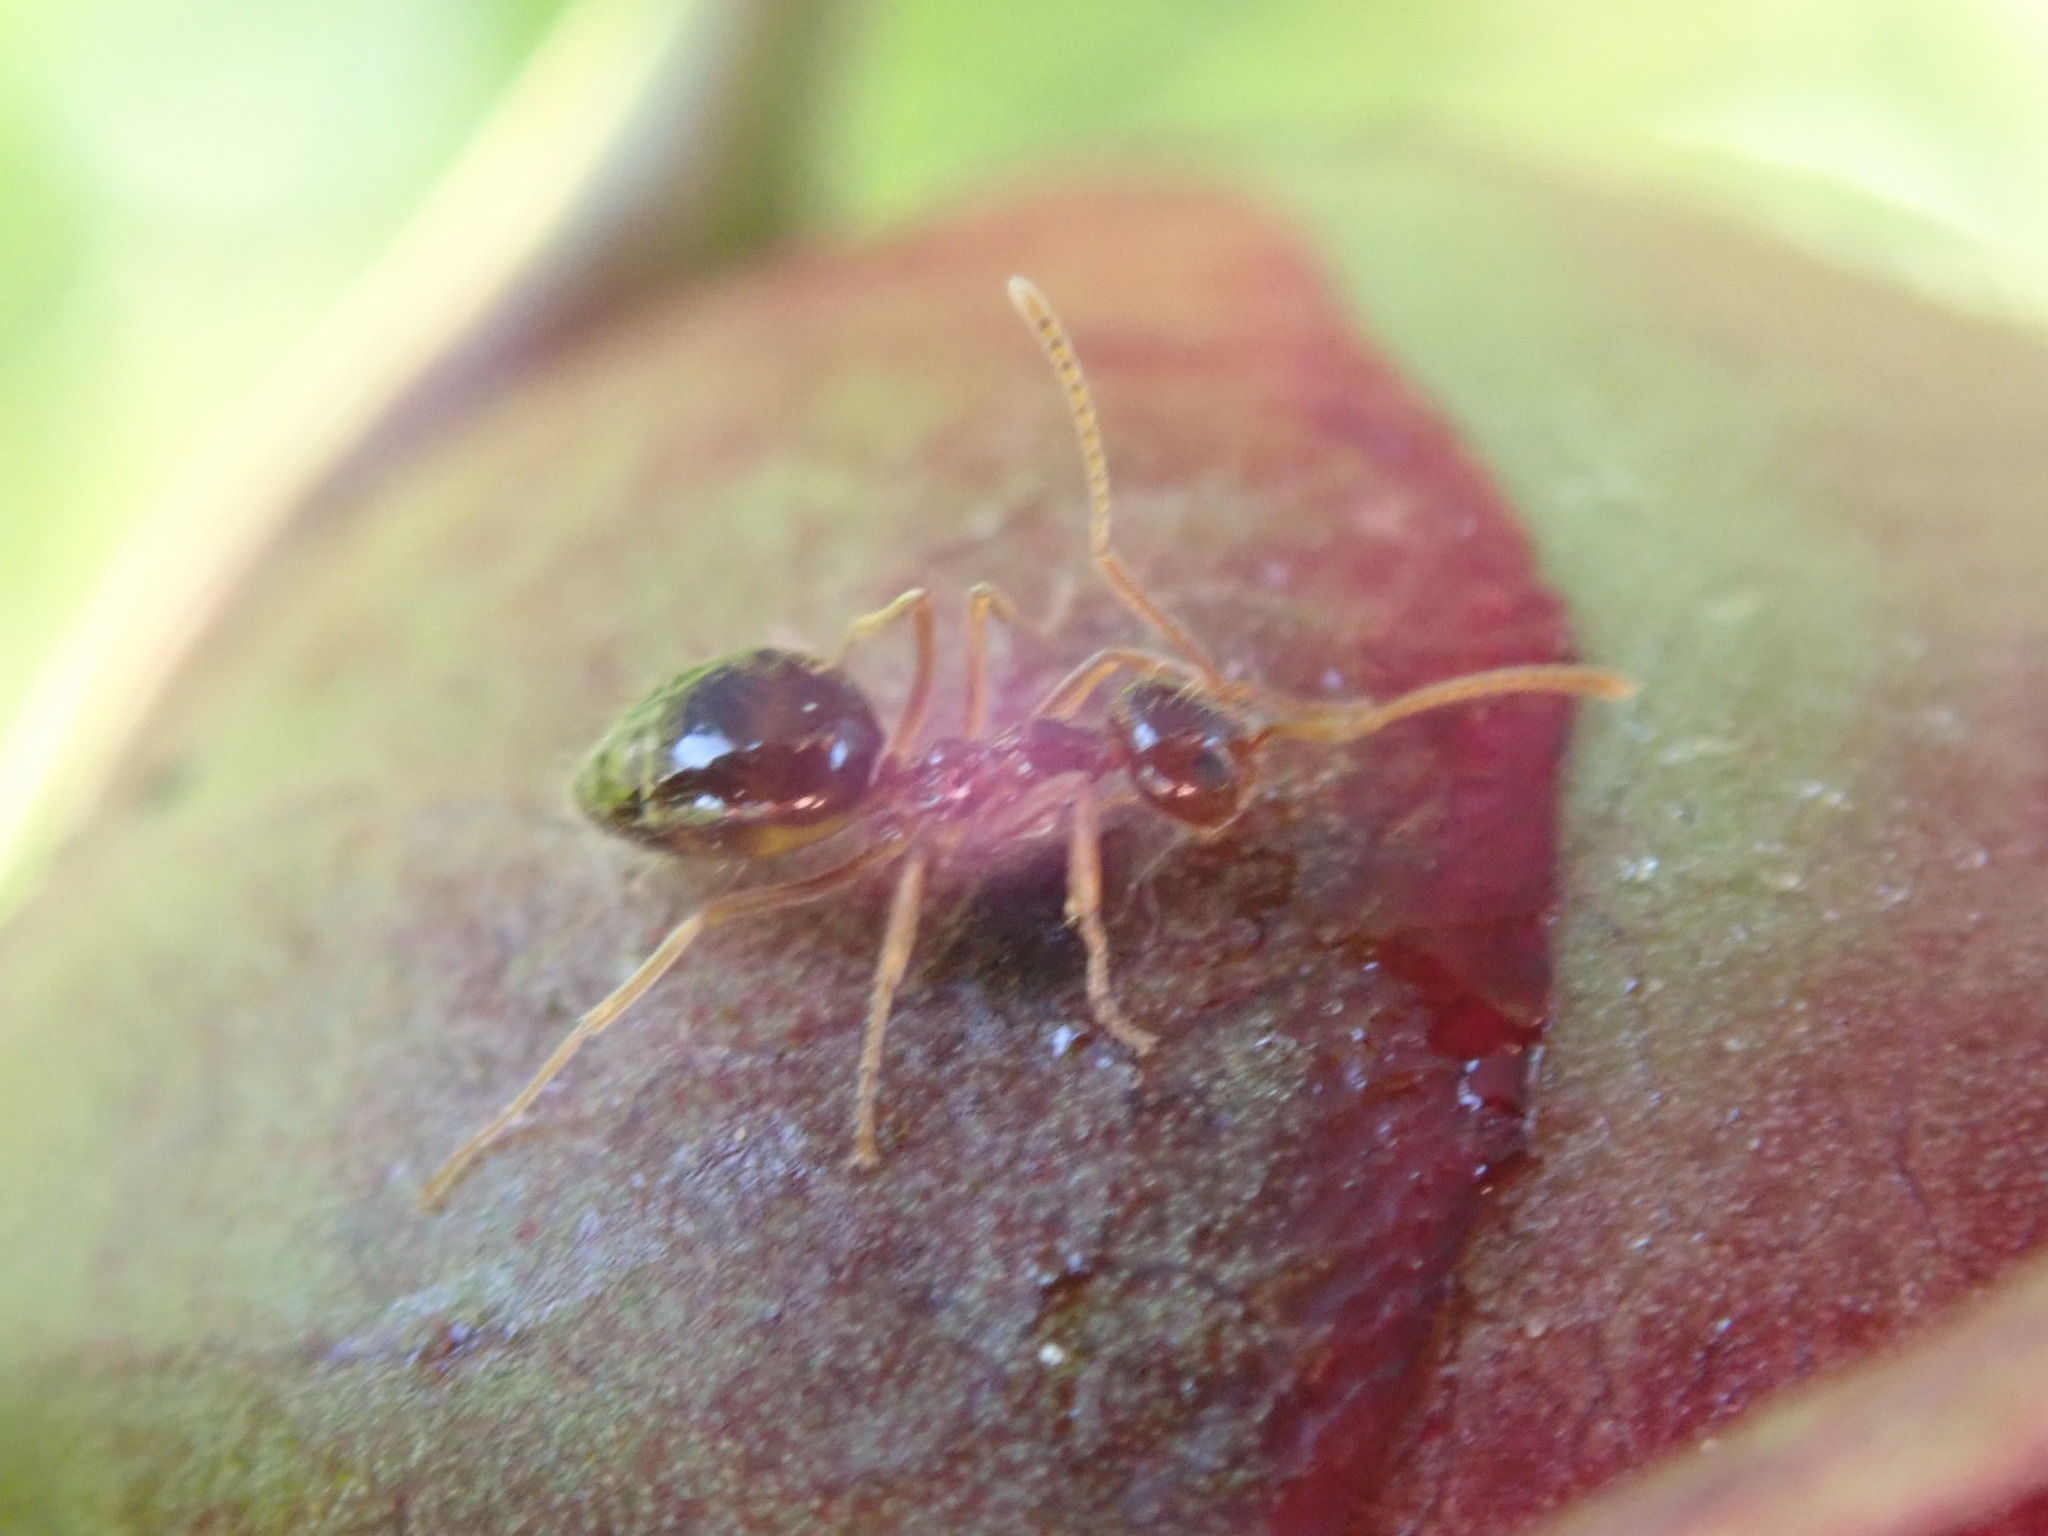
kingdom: Animalia
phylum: Arthropoda
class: Insecta
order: Hymenoptera
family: Formicidae
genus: Prenolepis
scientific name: Prenolepis imparis
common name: Small honey ant
